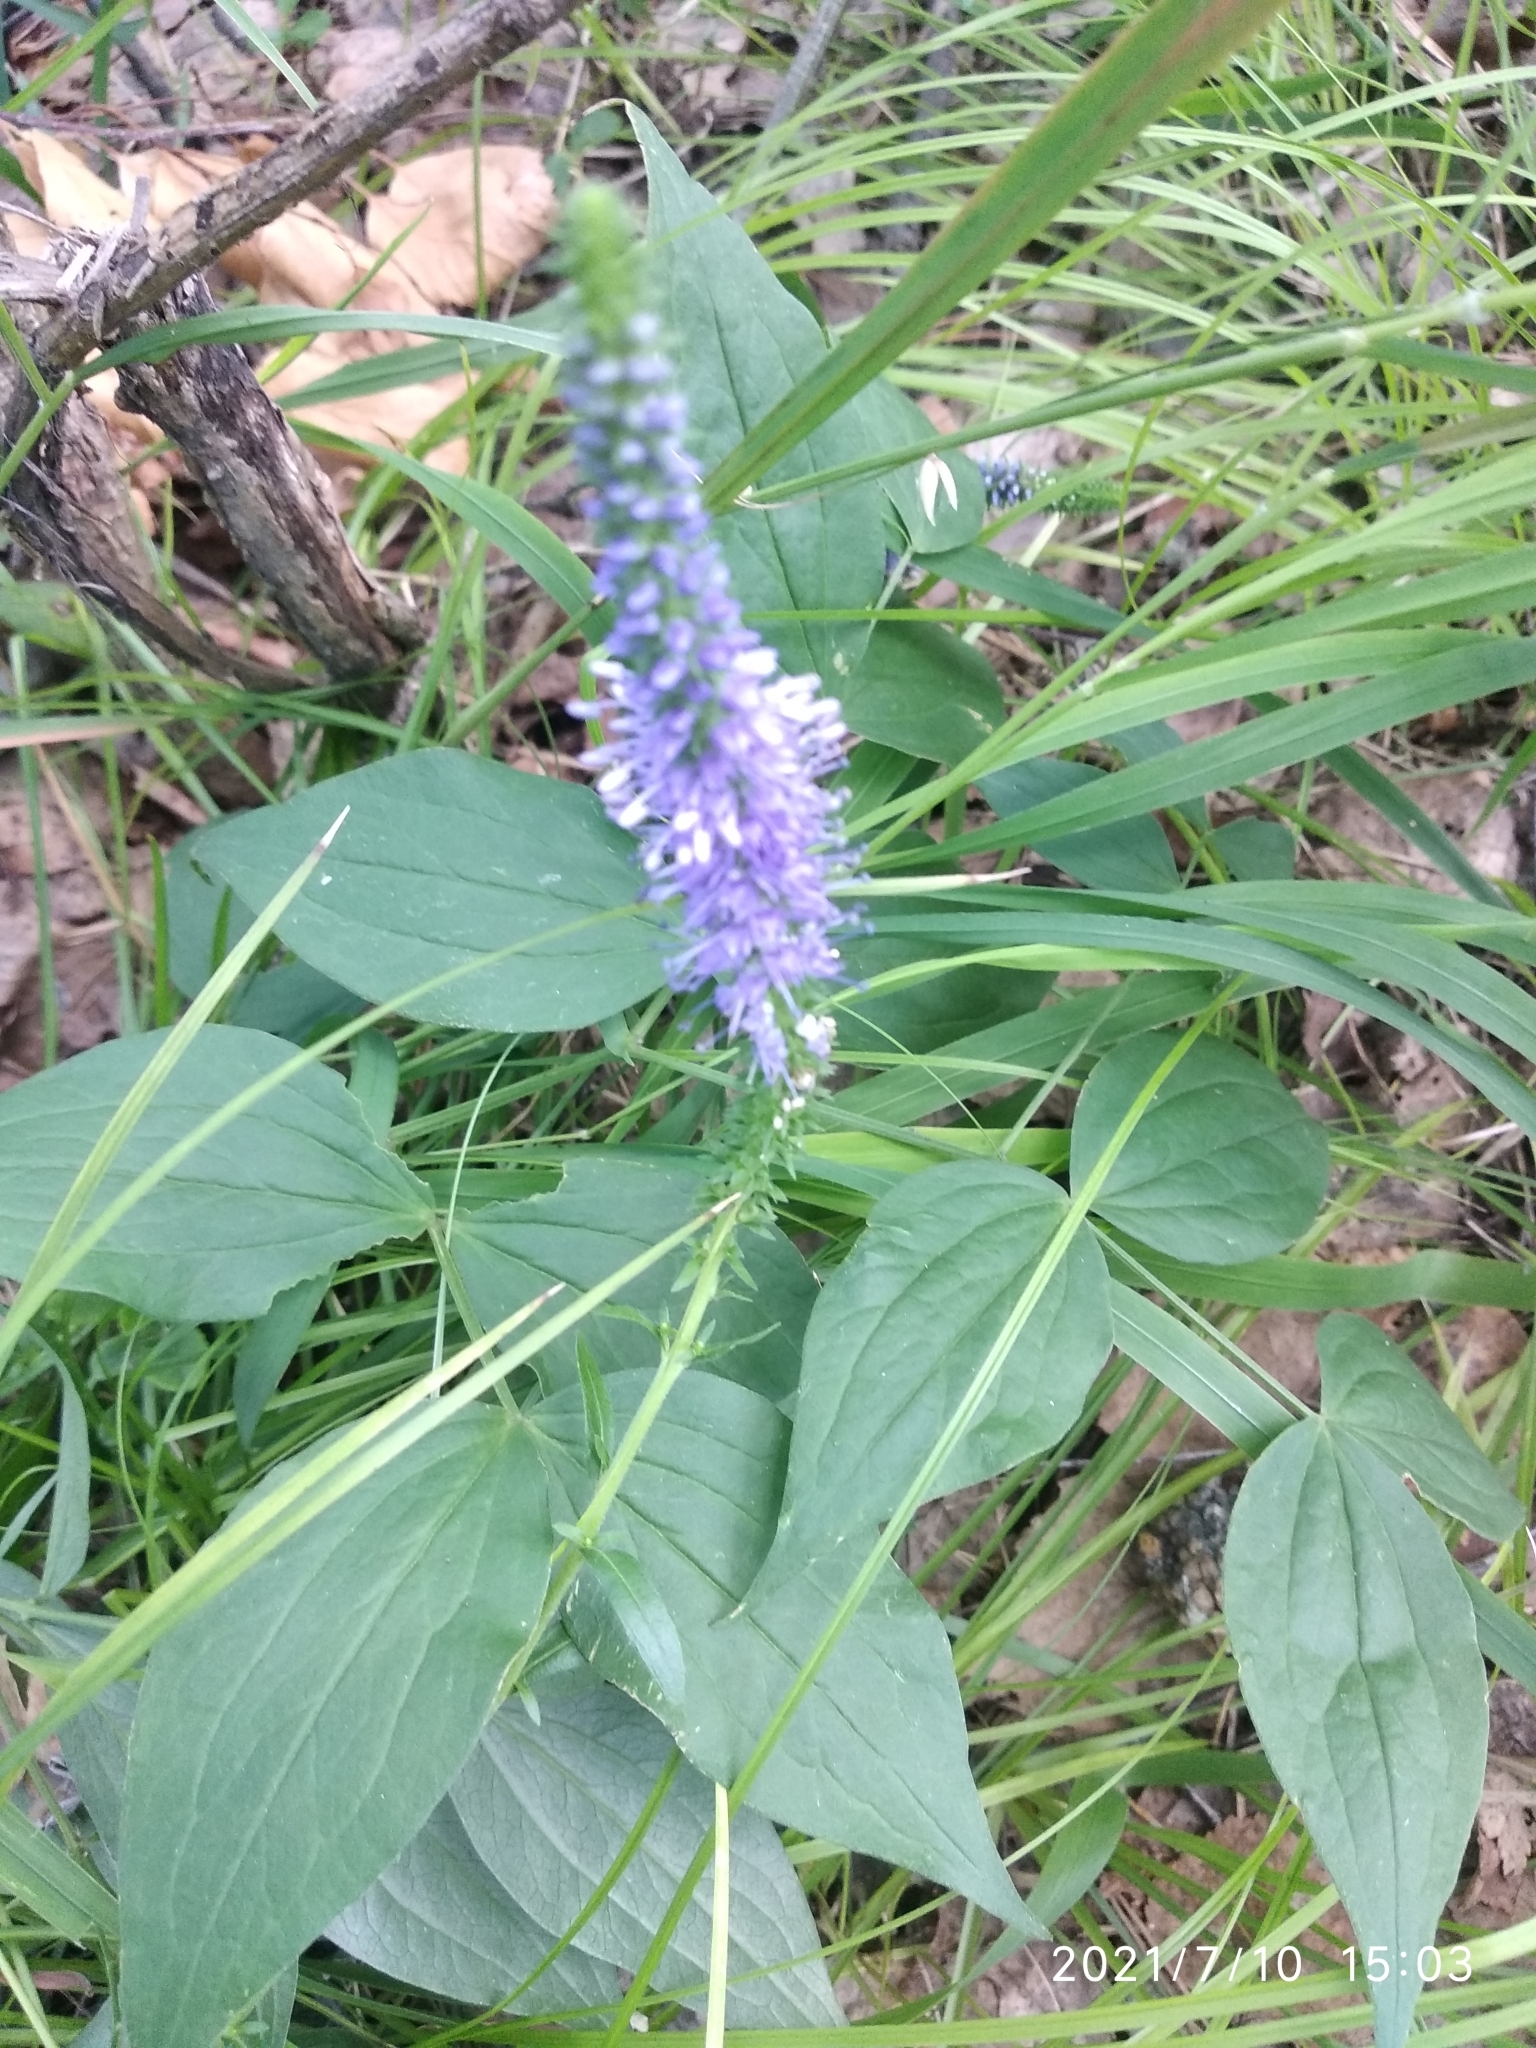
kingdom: Plantae
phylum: Tracheophyta
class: Magnoliopsida
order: Lamiales
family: Plantaginaceae
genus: Veronica
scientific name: Veronica spicata
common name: Spiked speedwell
